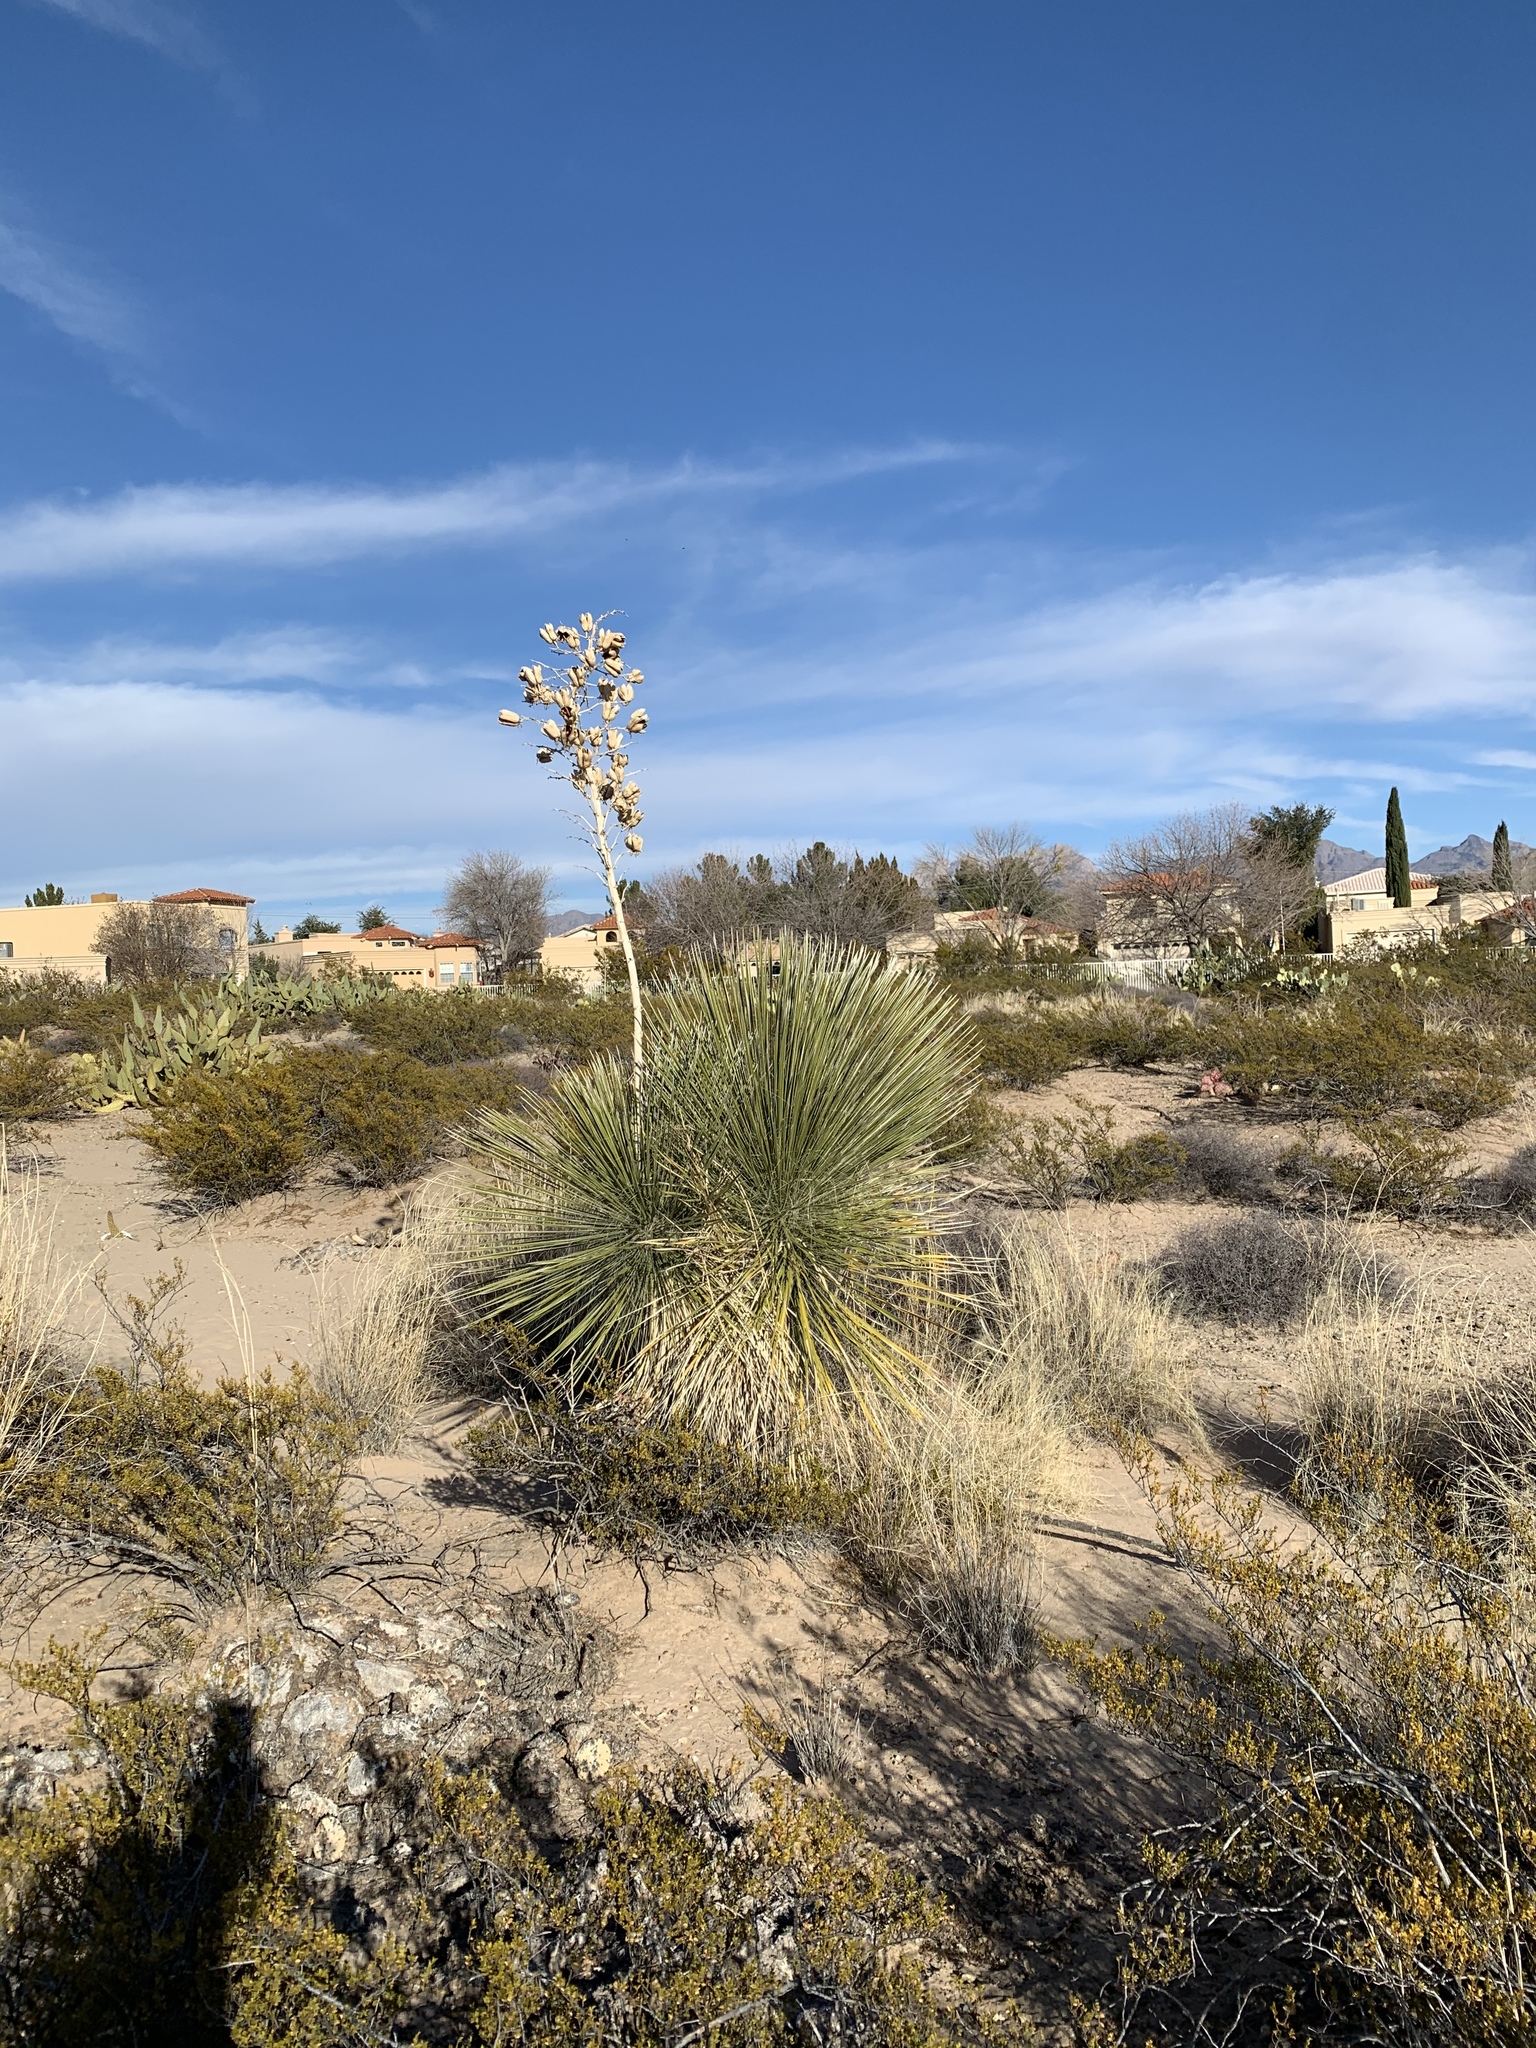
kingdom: Plantae
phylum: Tracheophyta
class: Liliopsida
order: Asparagales
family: Asparagaceae
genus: Yucca
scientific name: Yucca elata
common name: Palmella
